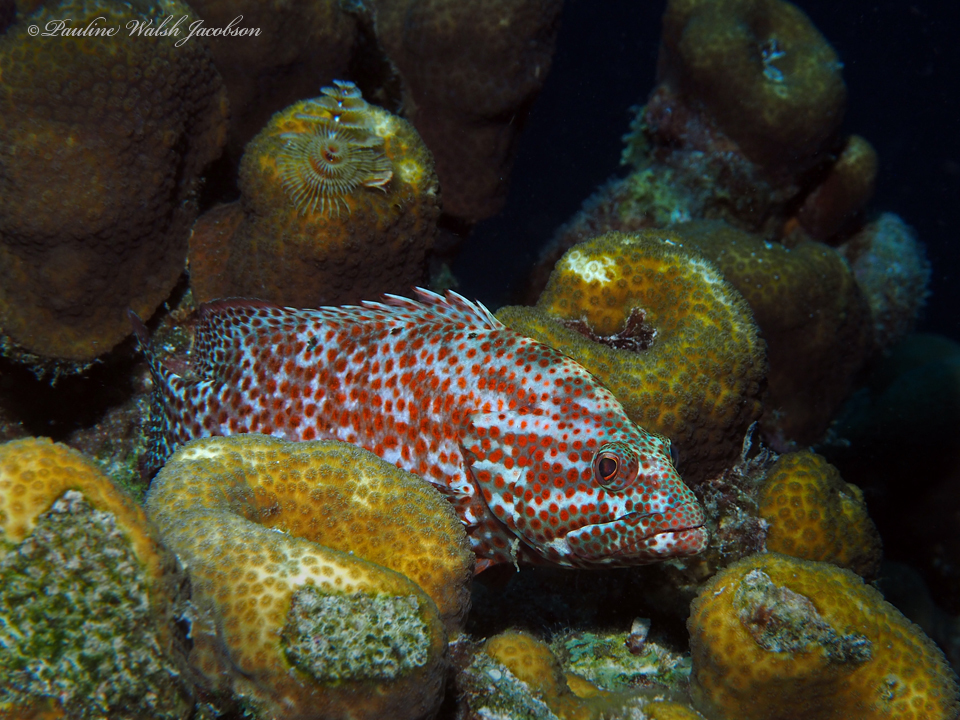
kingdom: Animalia
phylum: Chordata
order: Perciformes
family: Serranidae
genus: Cephalopholis
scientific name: Cephalopholis cruentata
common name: Graysby
